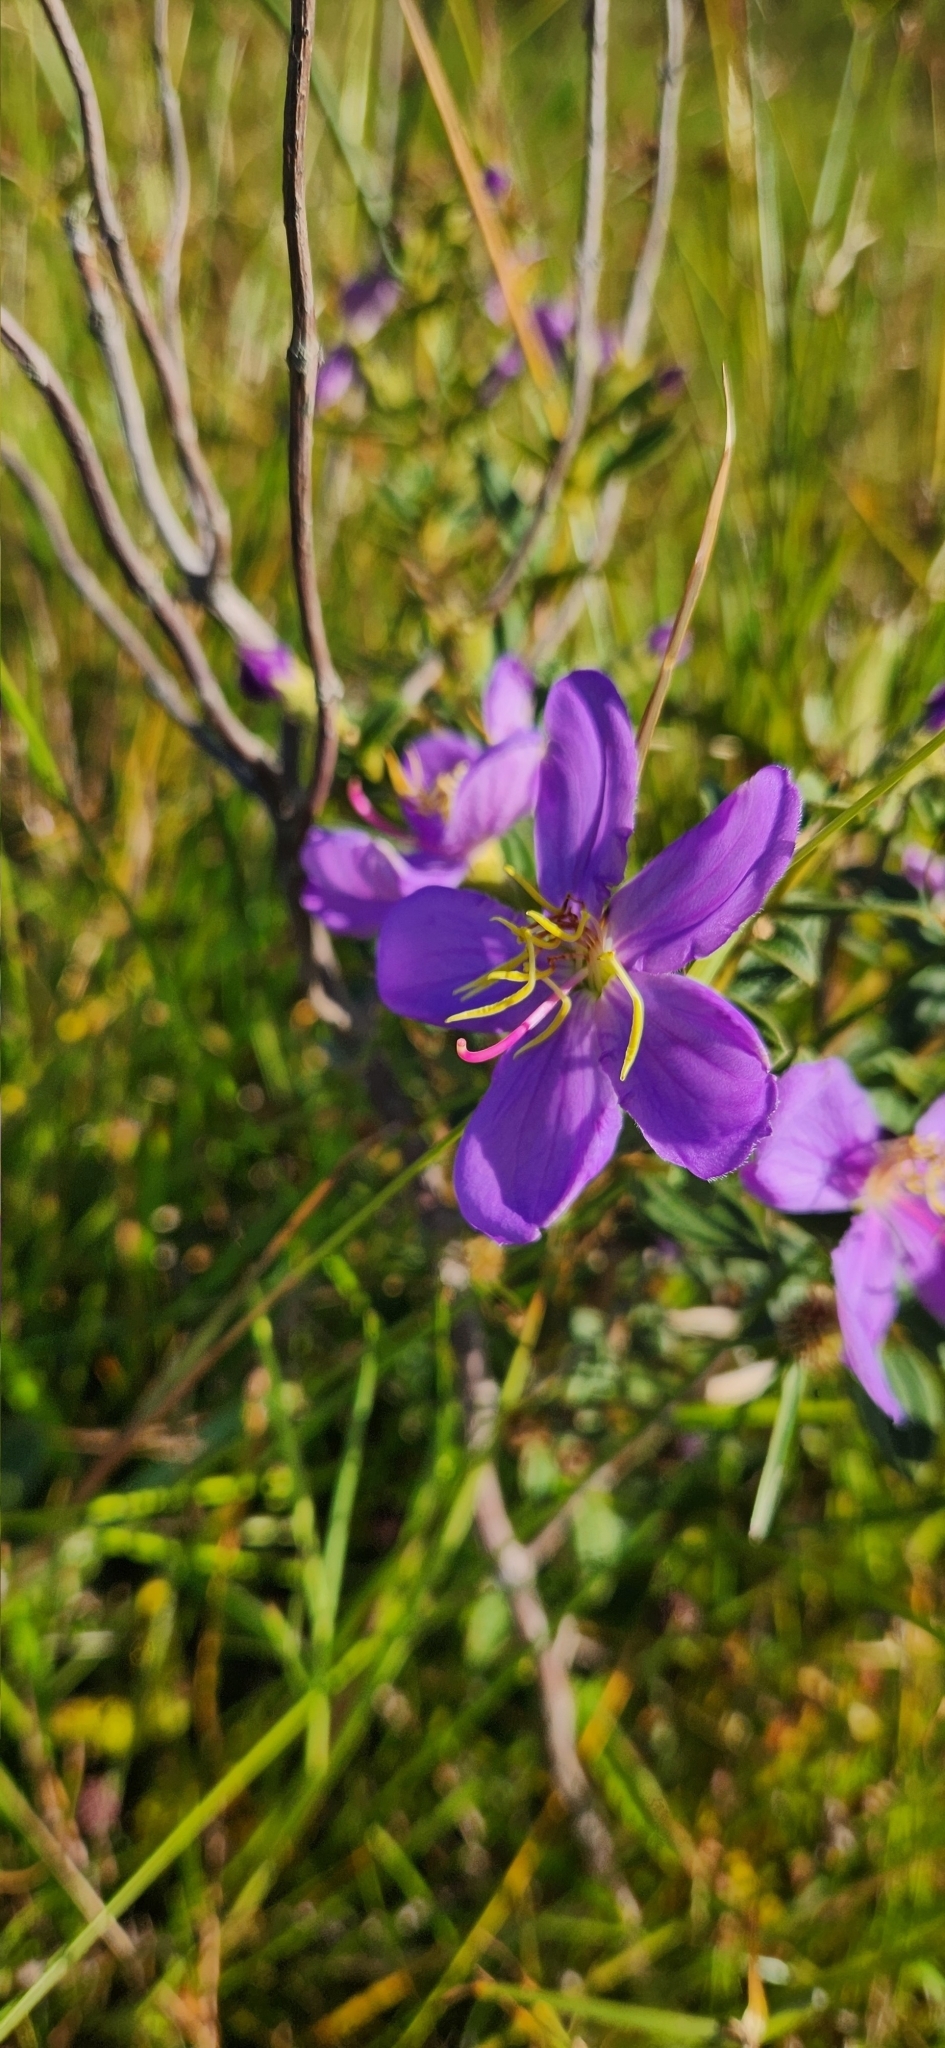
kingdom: Plantae
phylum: Tracheophyta
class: Magnoliopsida
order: Myrtales
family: Melastomataceae
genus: Pleroma
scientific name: Pleroma asperius
